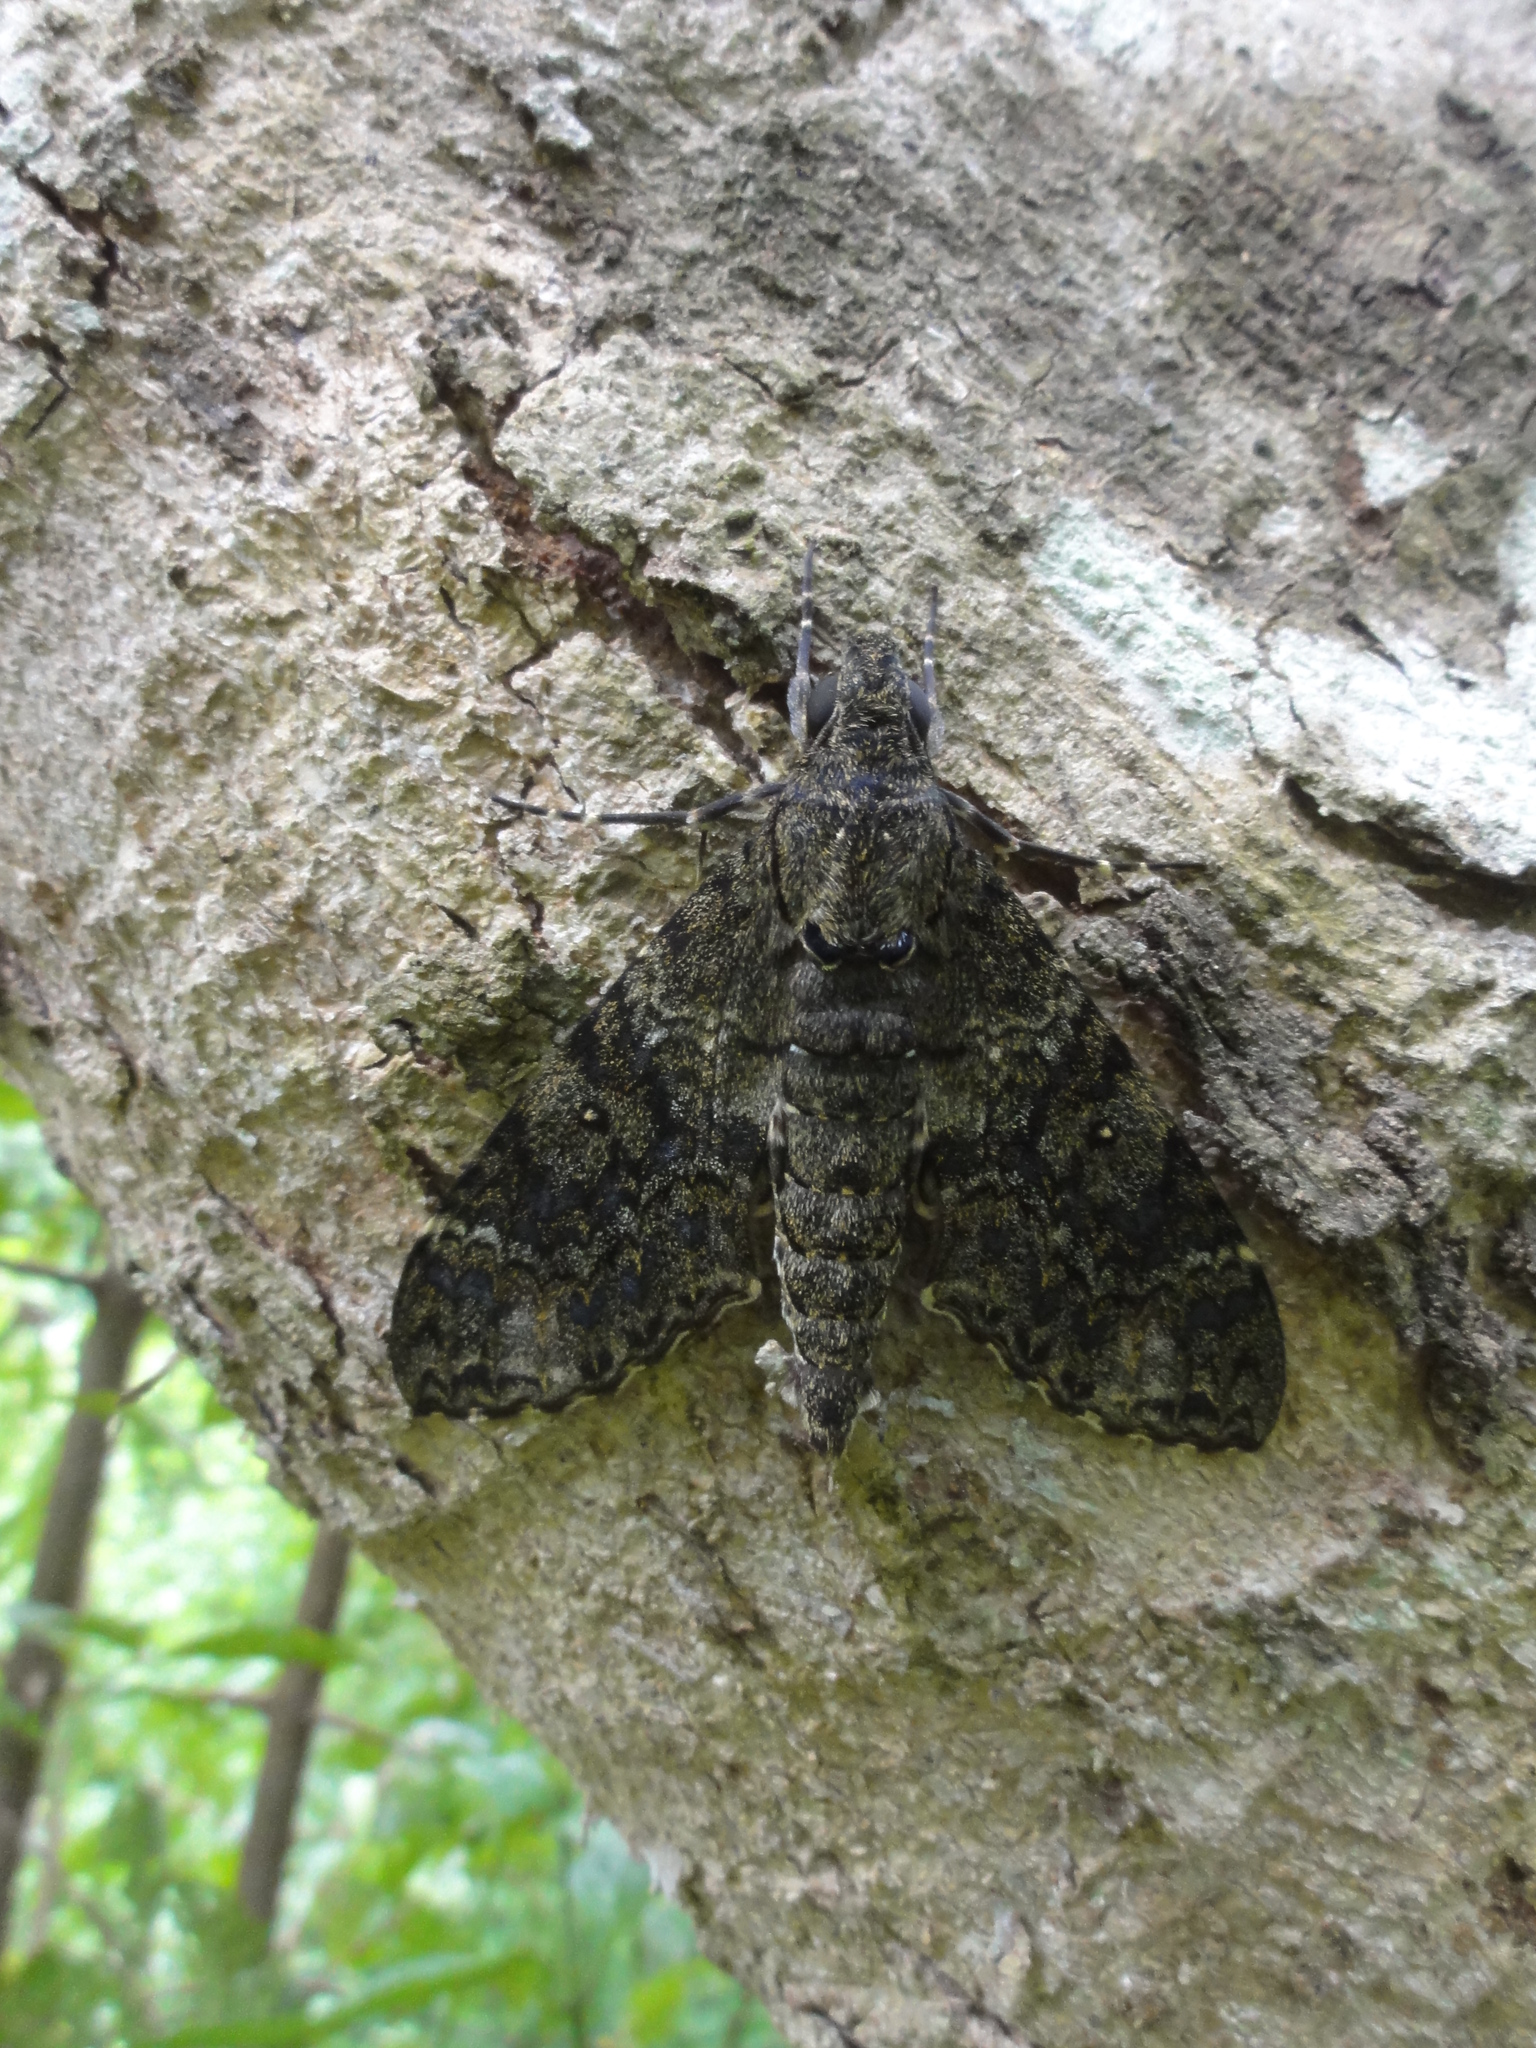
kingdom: Animalia
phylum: Arthropoda
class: Insecta
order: Lepidoptera
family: Sphingidae
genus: Meganoton
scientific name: Meganoton nyctiphanes
